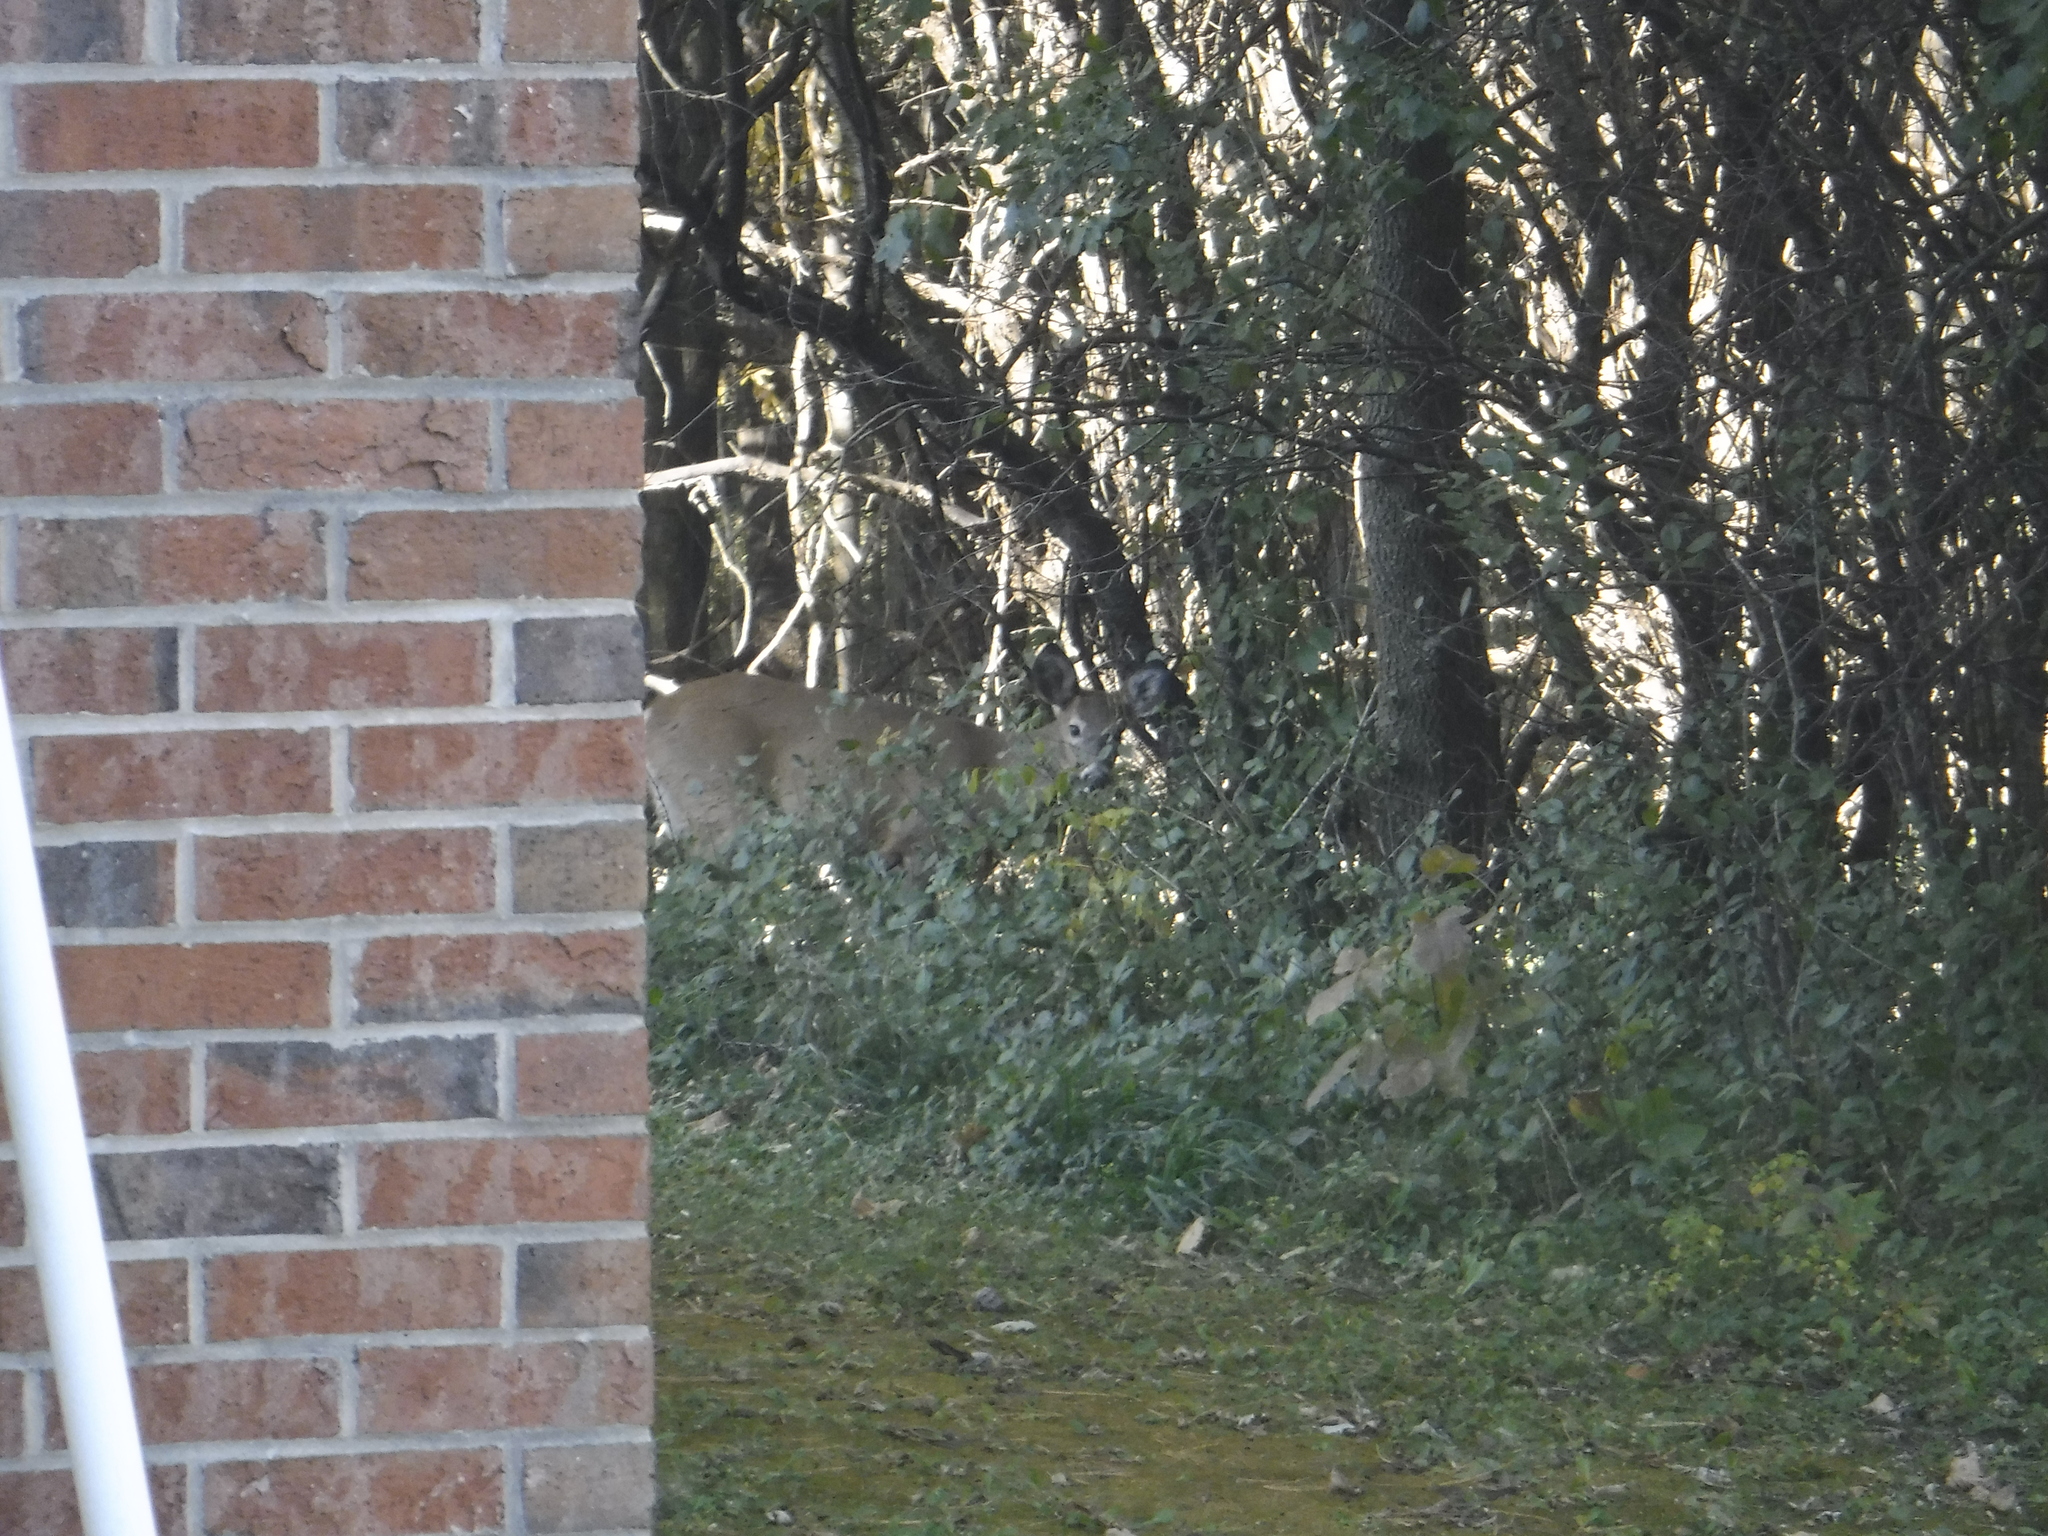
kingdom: Animalia
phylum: Chordata
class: Mammalia
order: Artiodactyla
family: Cervidae
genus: Odocoileus
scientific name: Odocoileus virginianus
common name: White-tailed deer
